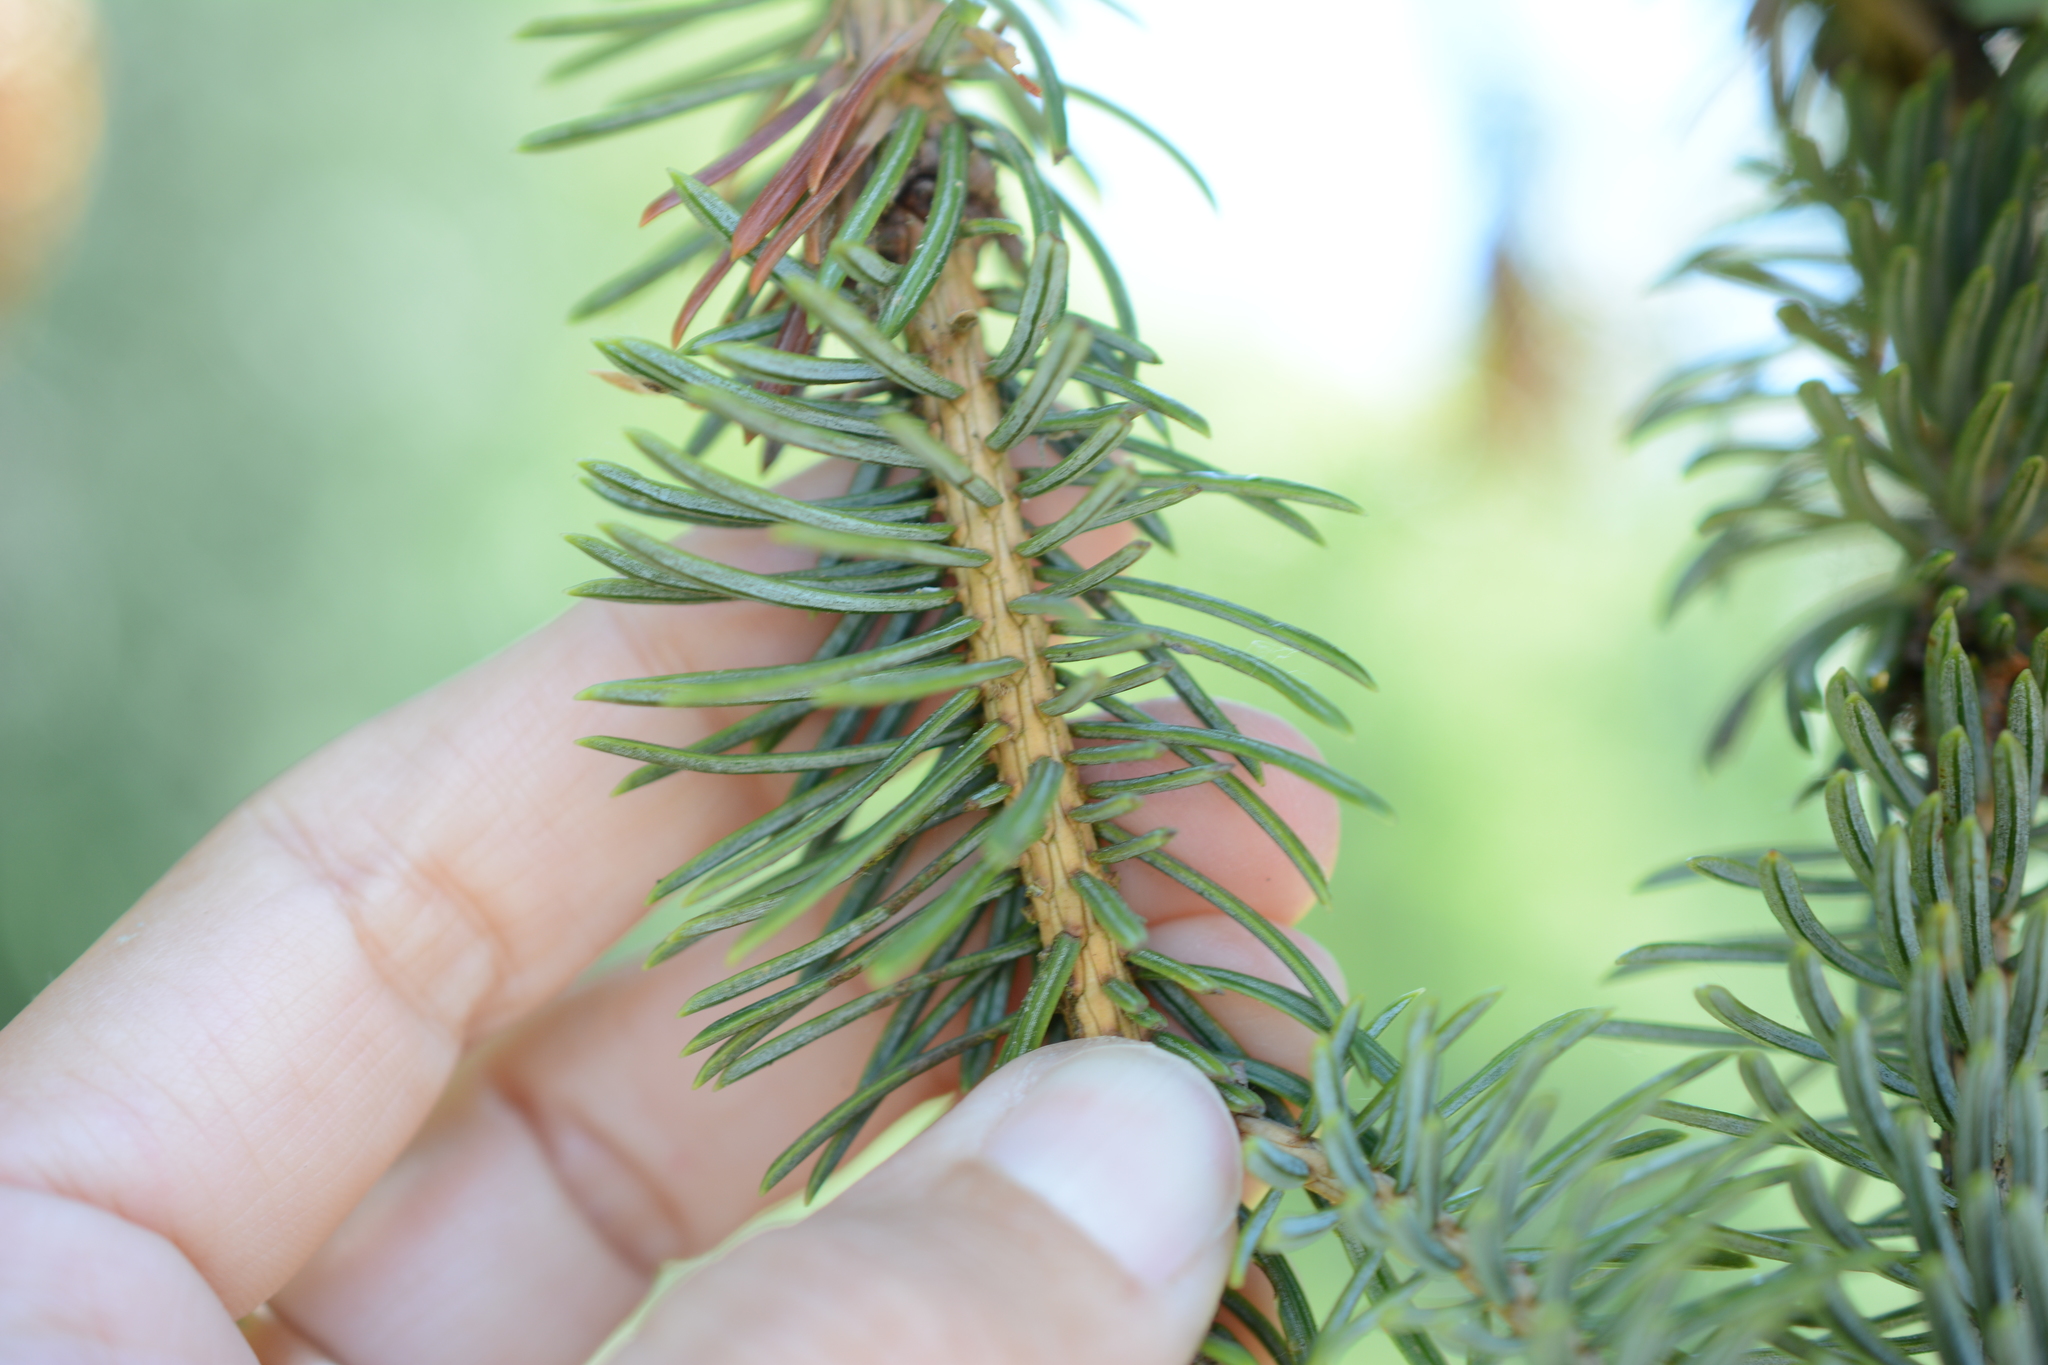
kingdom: Plantae
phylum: Tracheophyta
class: Pinopsida
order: Pinales
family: Pinaceae
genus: Picea
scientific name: Picea sitchensis
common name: Sitka spruce
